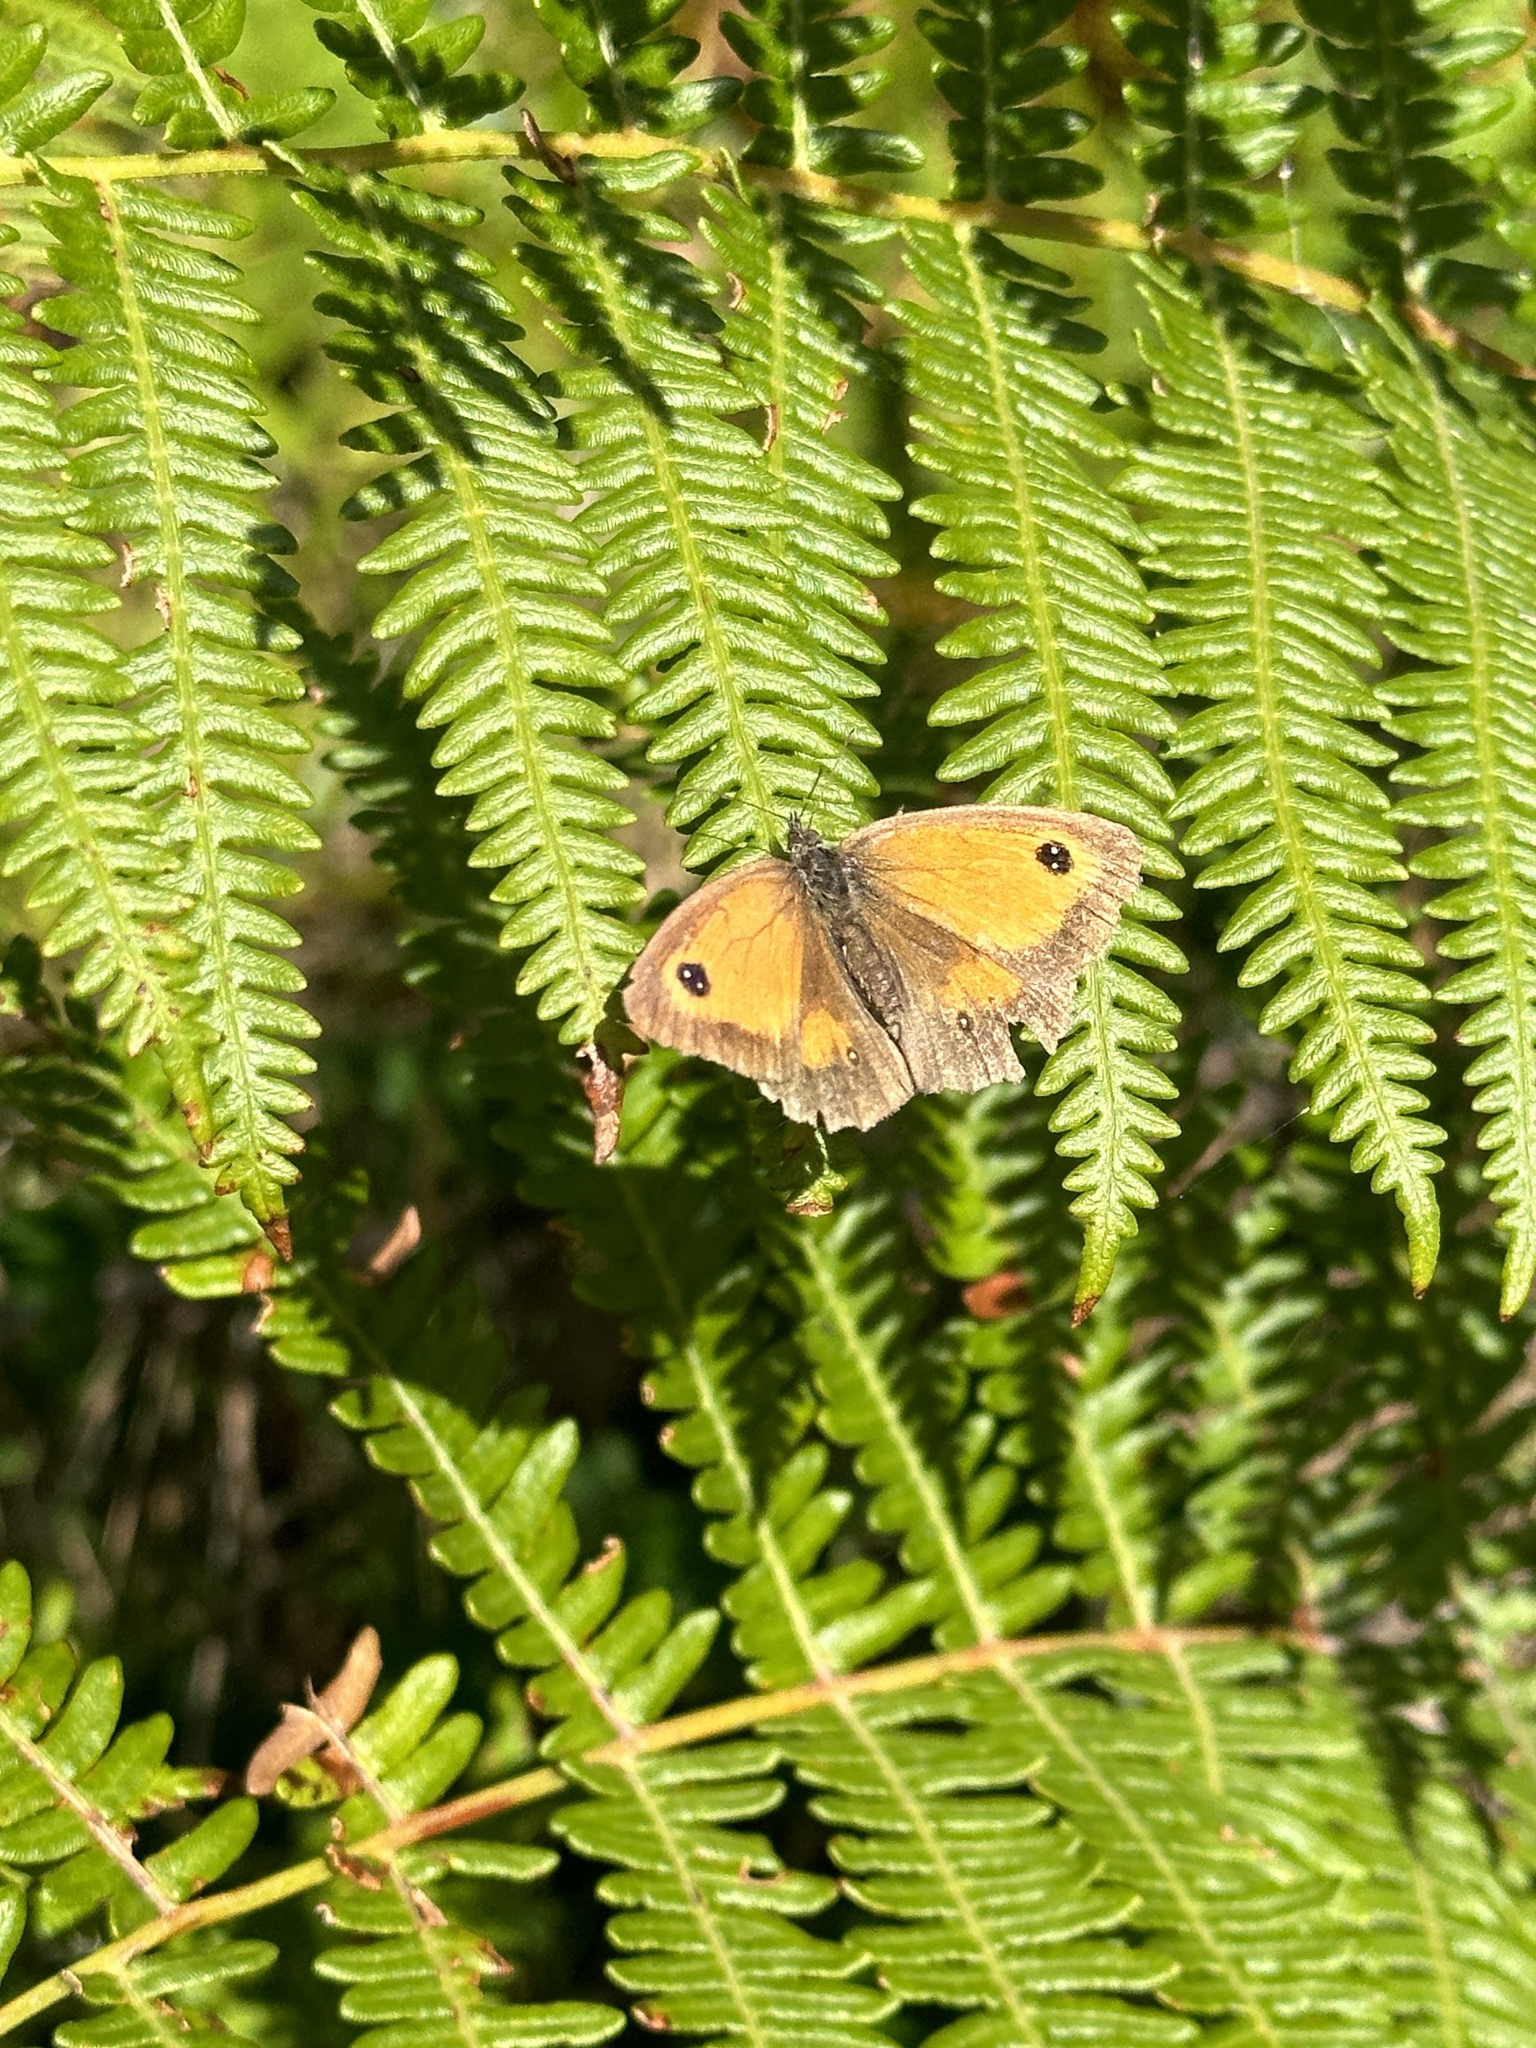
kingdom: Animalia
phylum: Arthropoda
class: Insecta
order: Lepidoptera
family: Nymphalidae
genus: Pyronia
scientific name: Pyronia tithonus
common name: Gatekeeper
